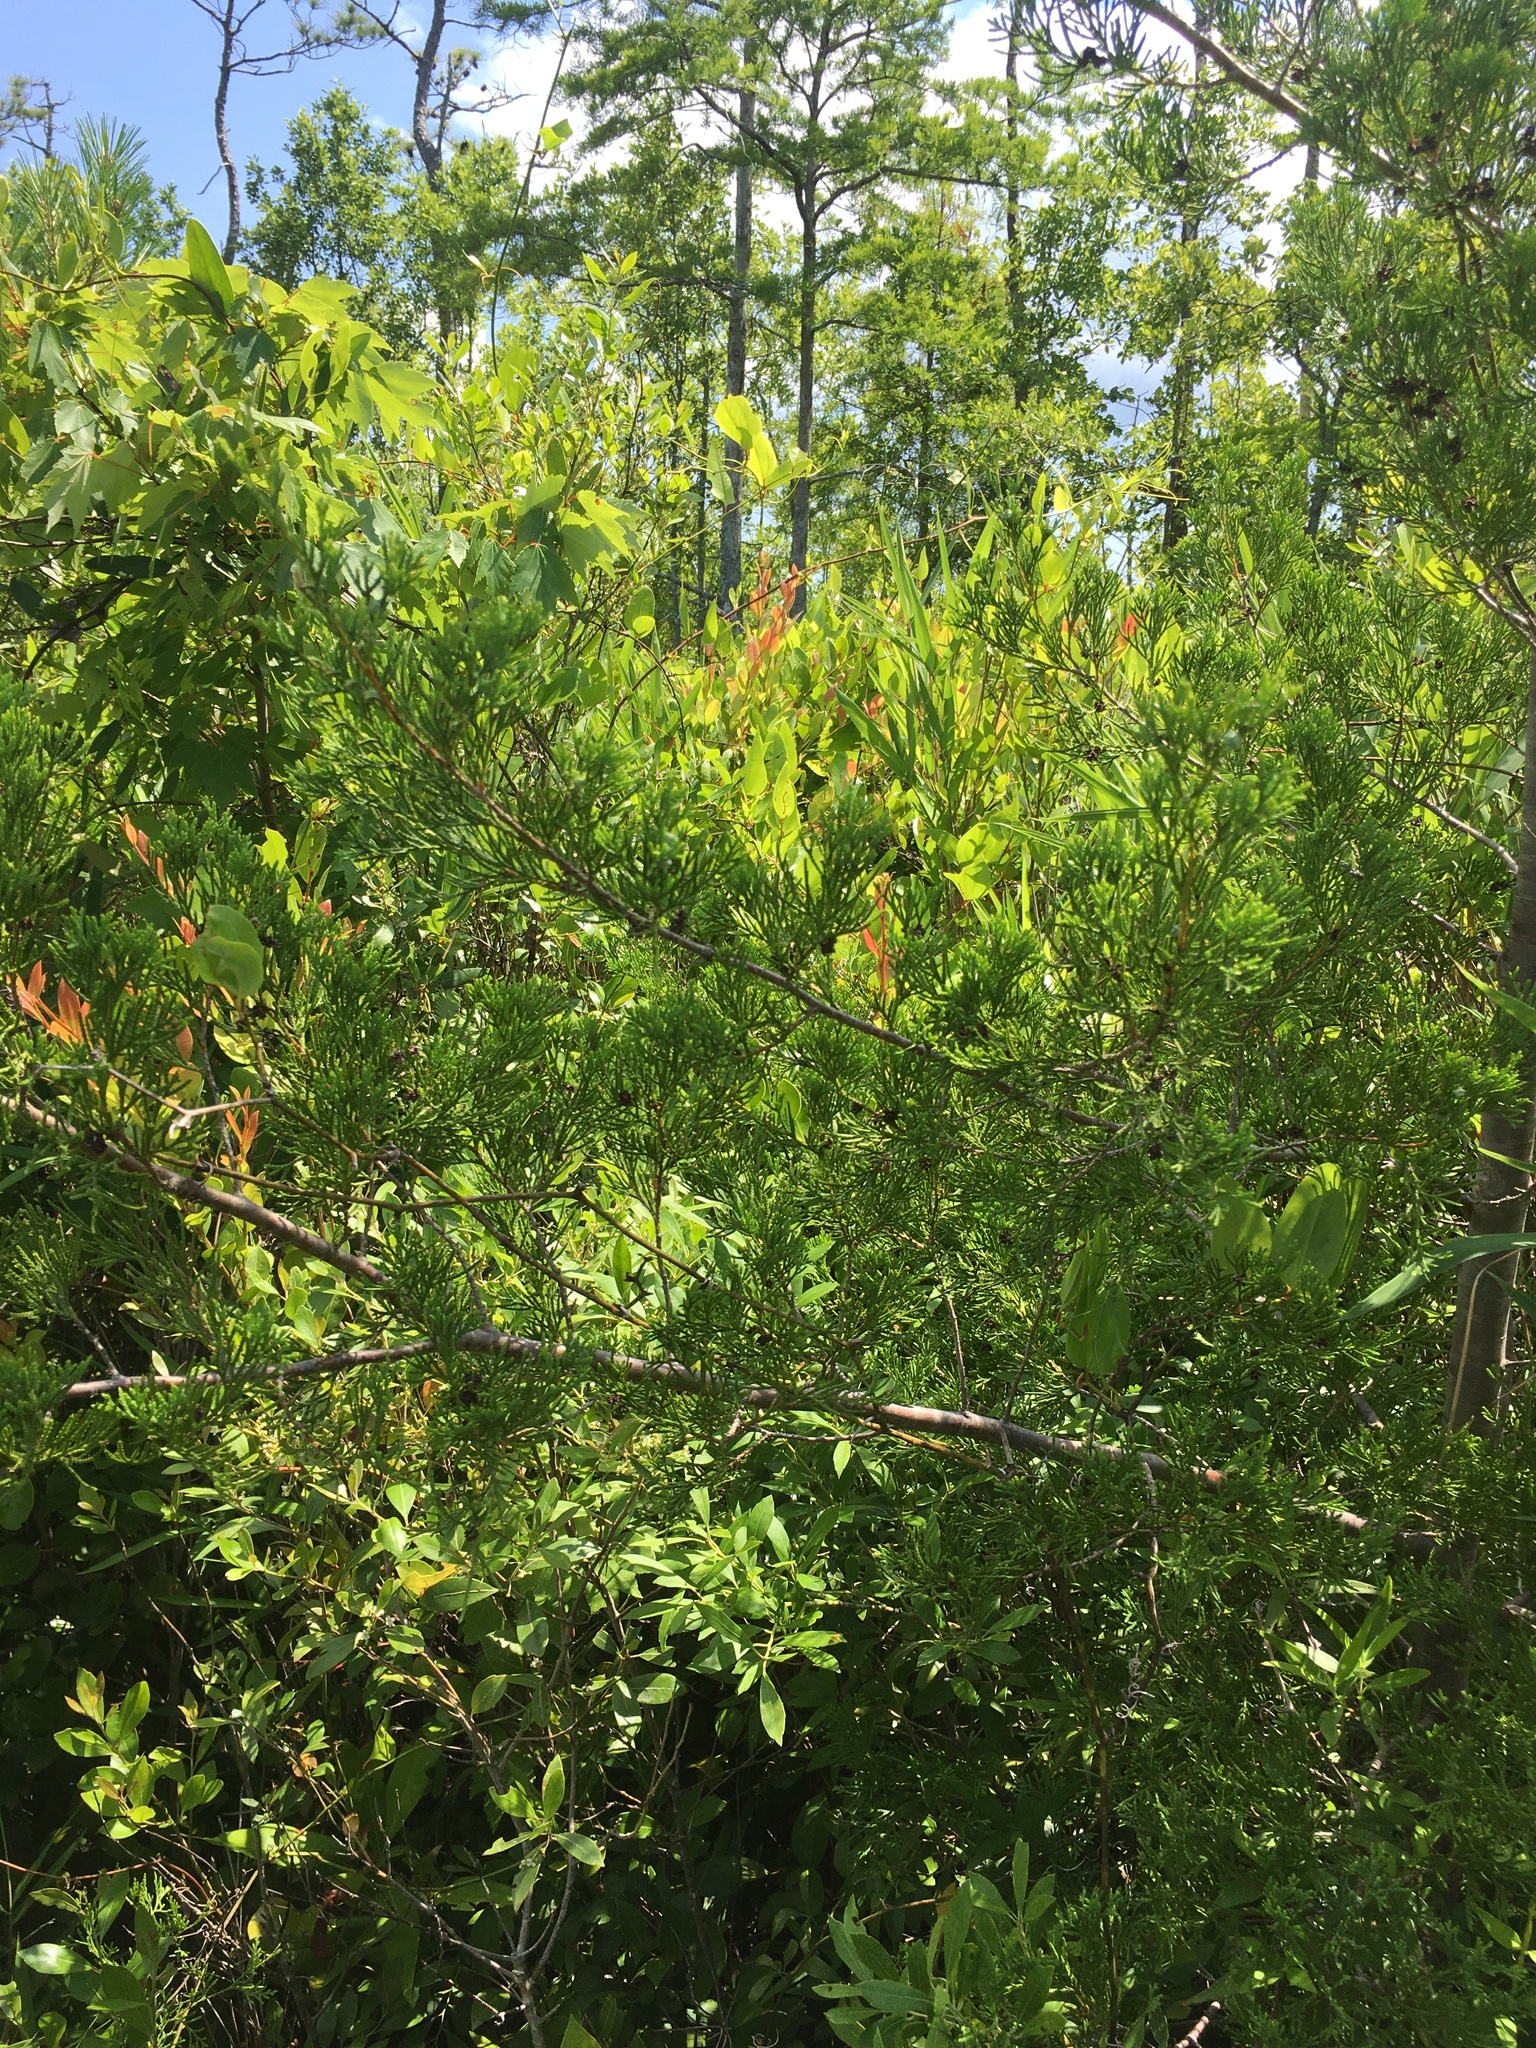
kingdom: Plantae
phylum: Tracheophyta
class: Pinopsida
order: Pinales
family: Cupressaceae
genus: Chamaecyparis
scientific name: Chamaecyparis thyoides
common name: Atlantic white cedar
